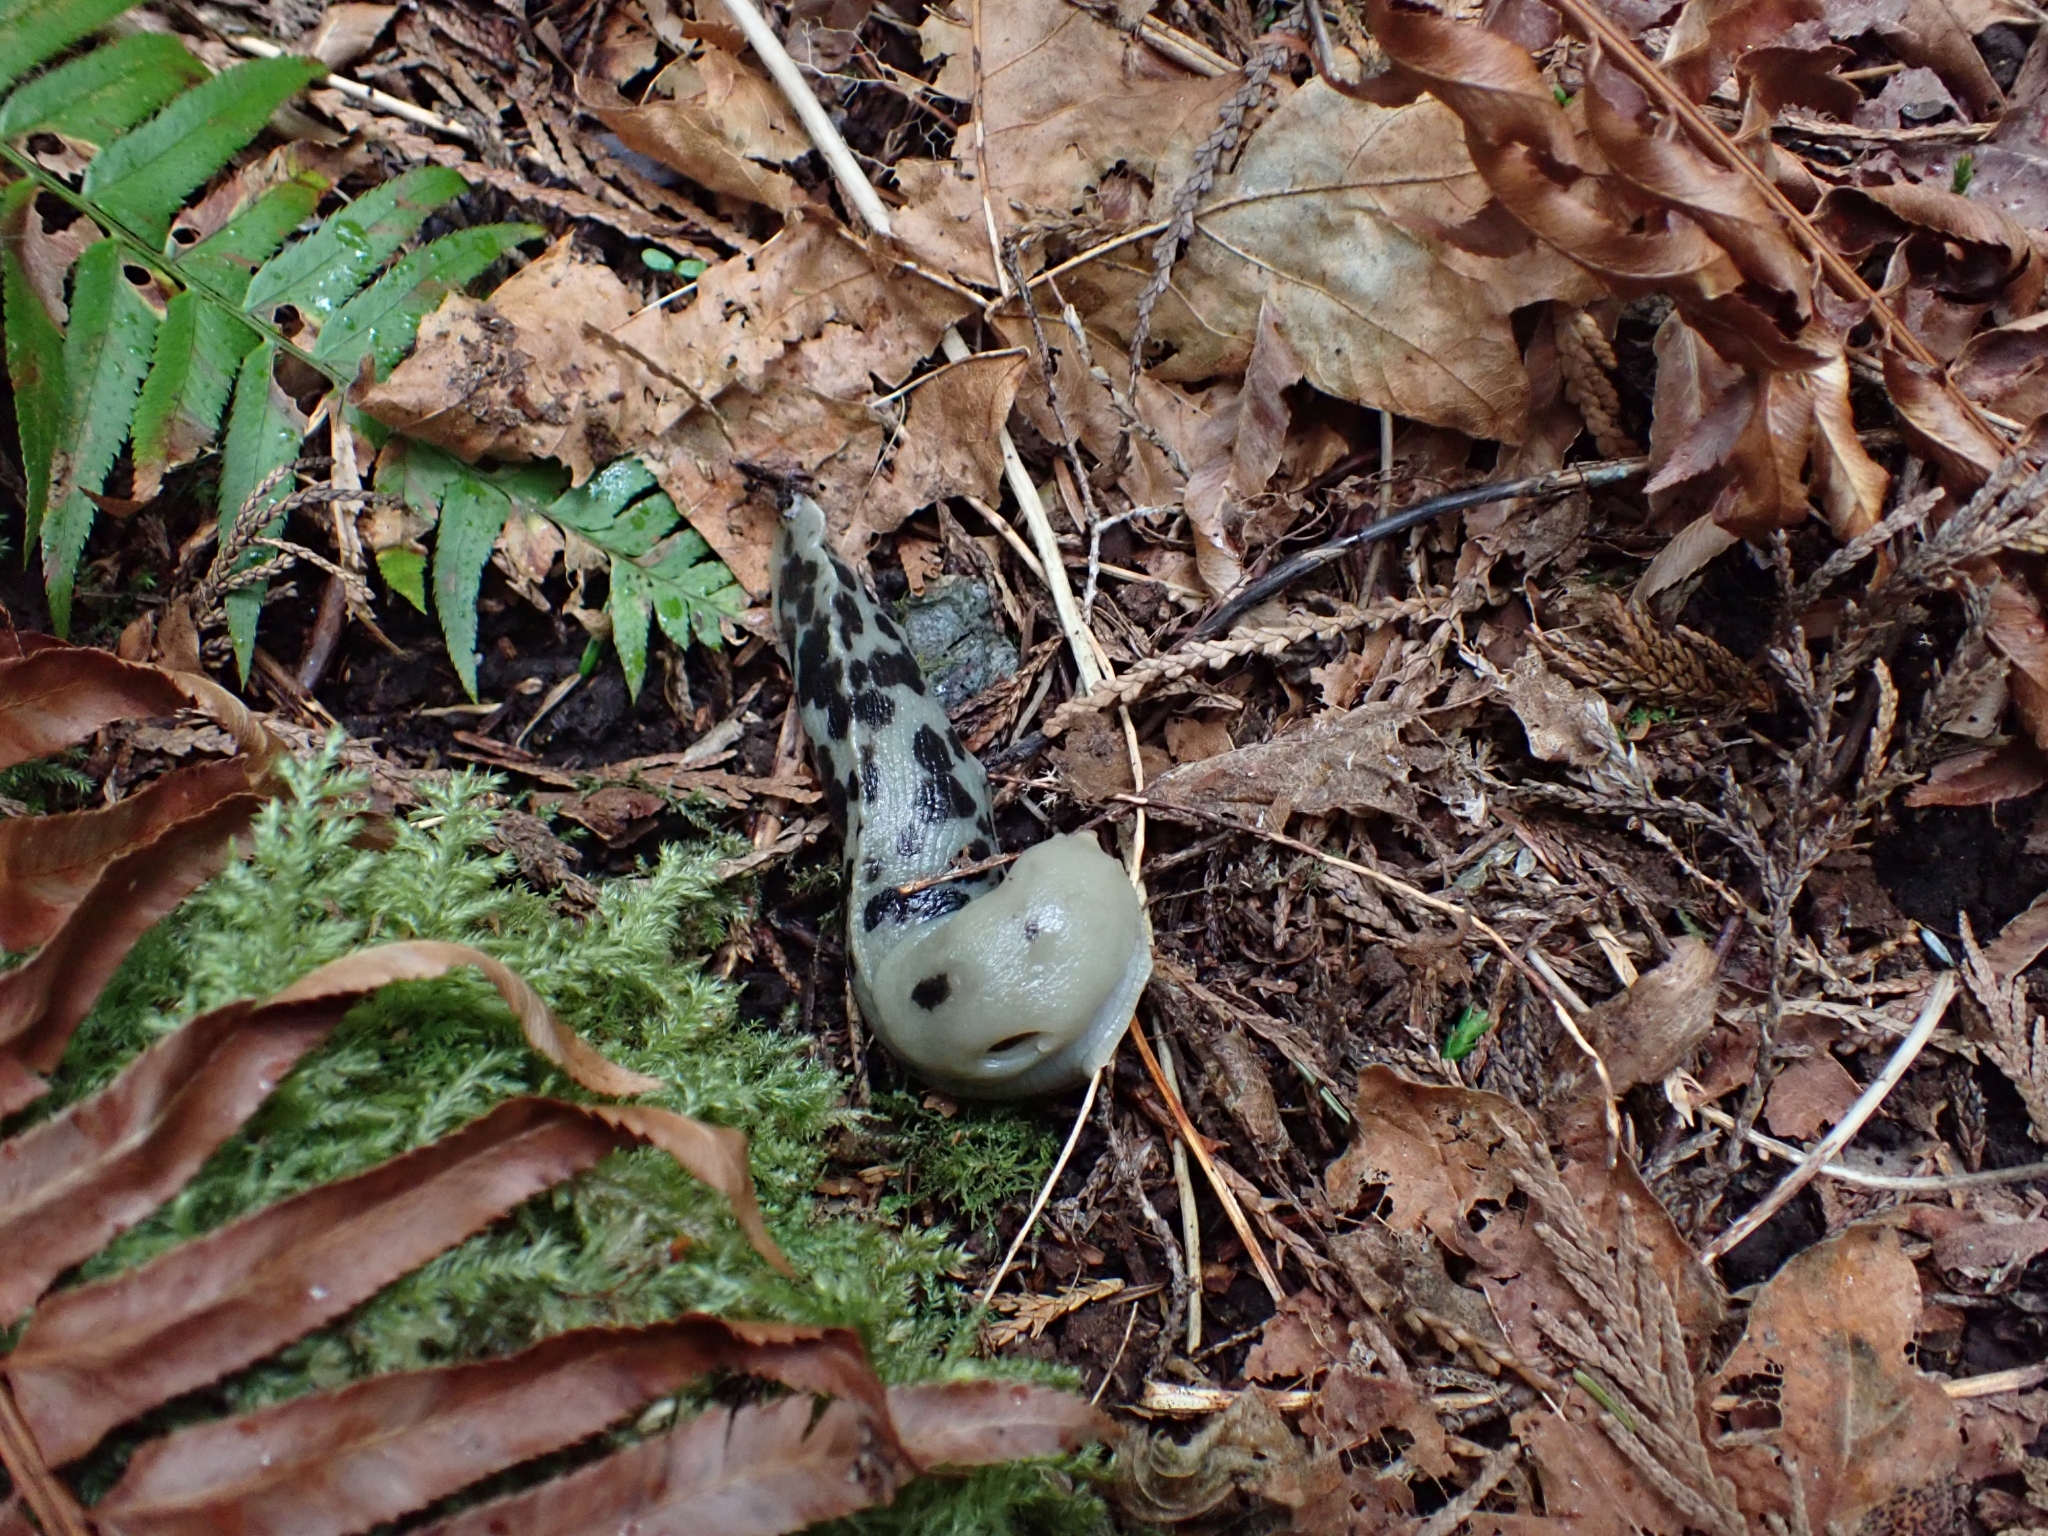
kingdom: Animalia
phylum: Mollusca
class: Gastropoda
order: Stylommatophora
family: Ariolimacidae
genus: Ariolimax
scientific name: Ariolimax columbianus
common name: Pacific banana slug
